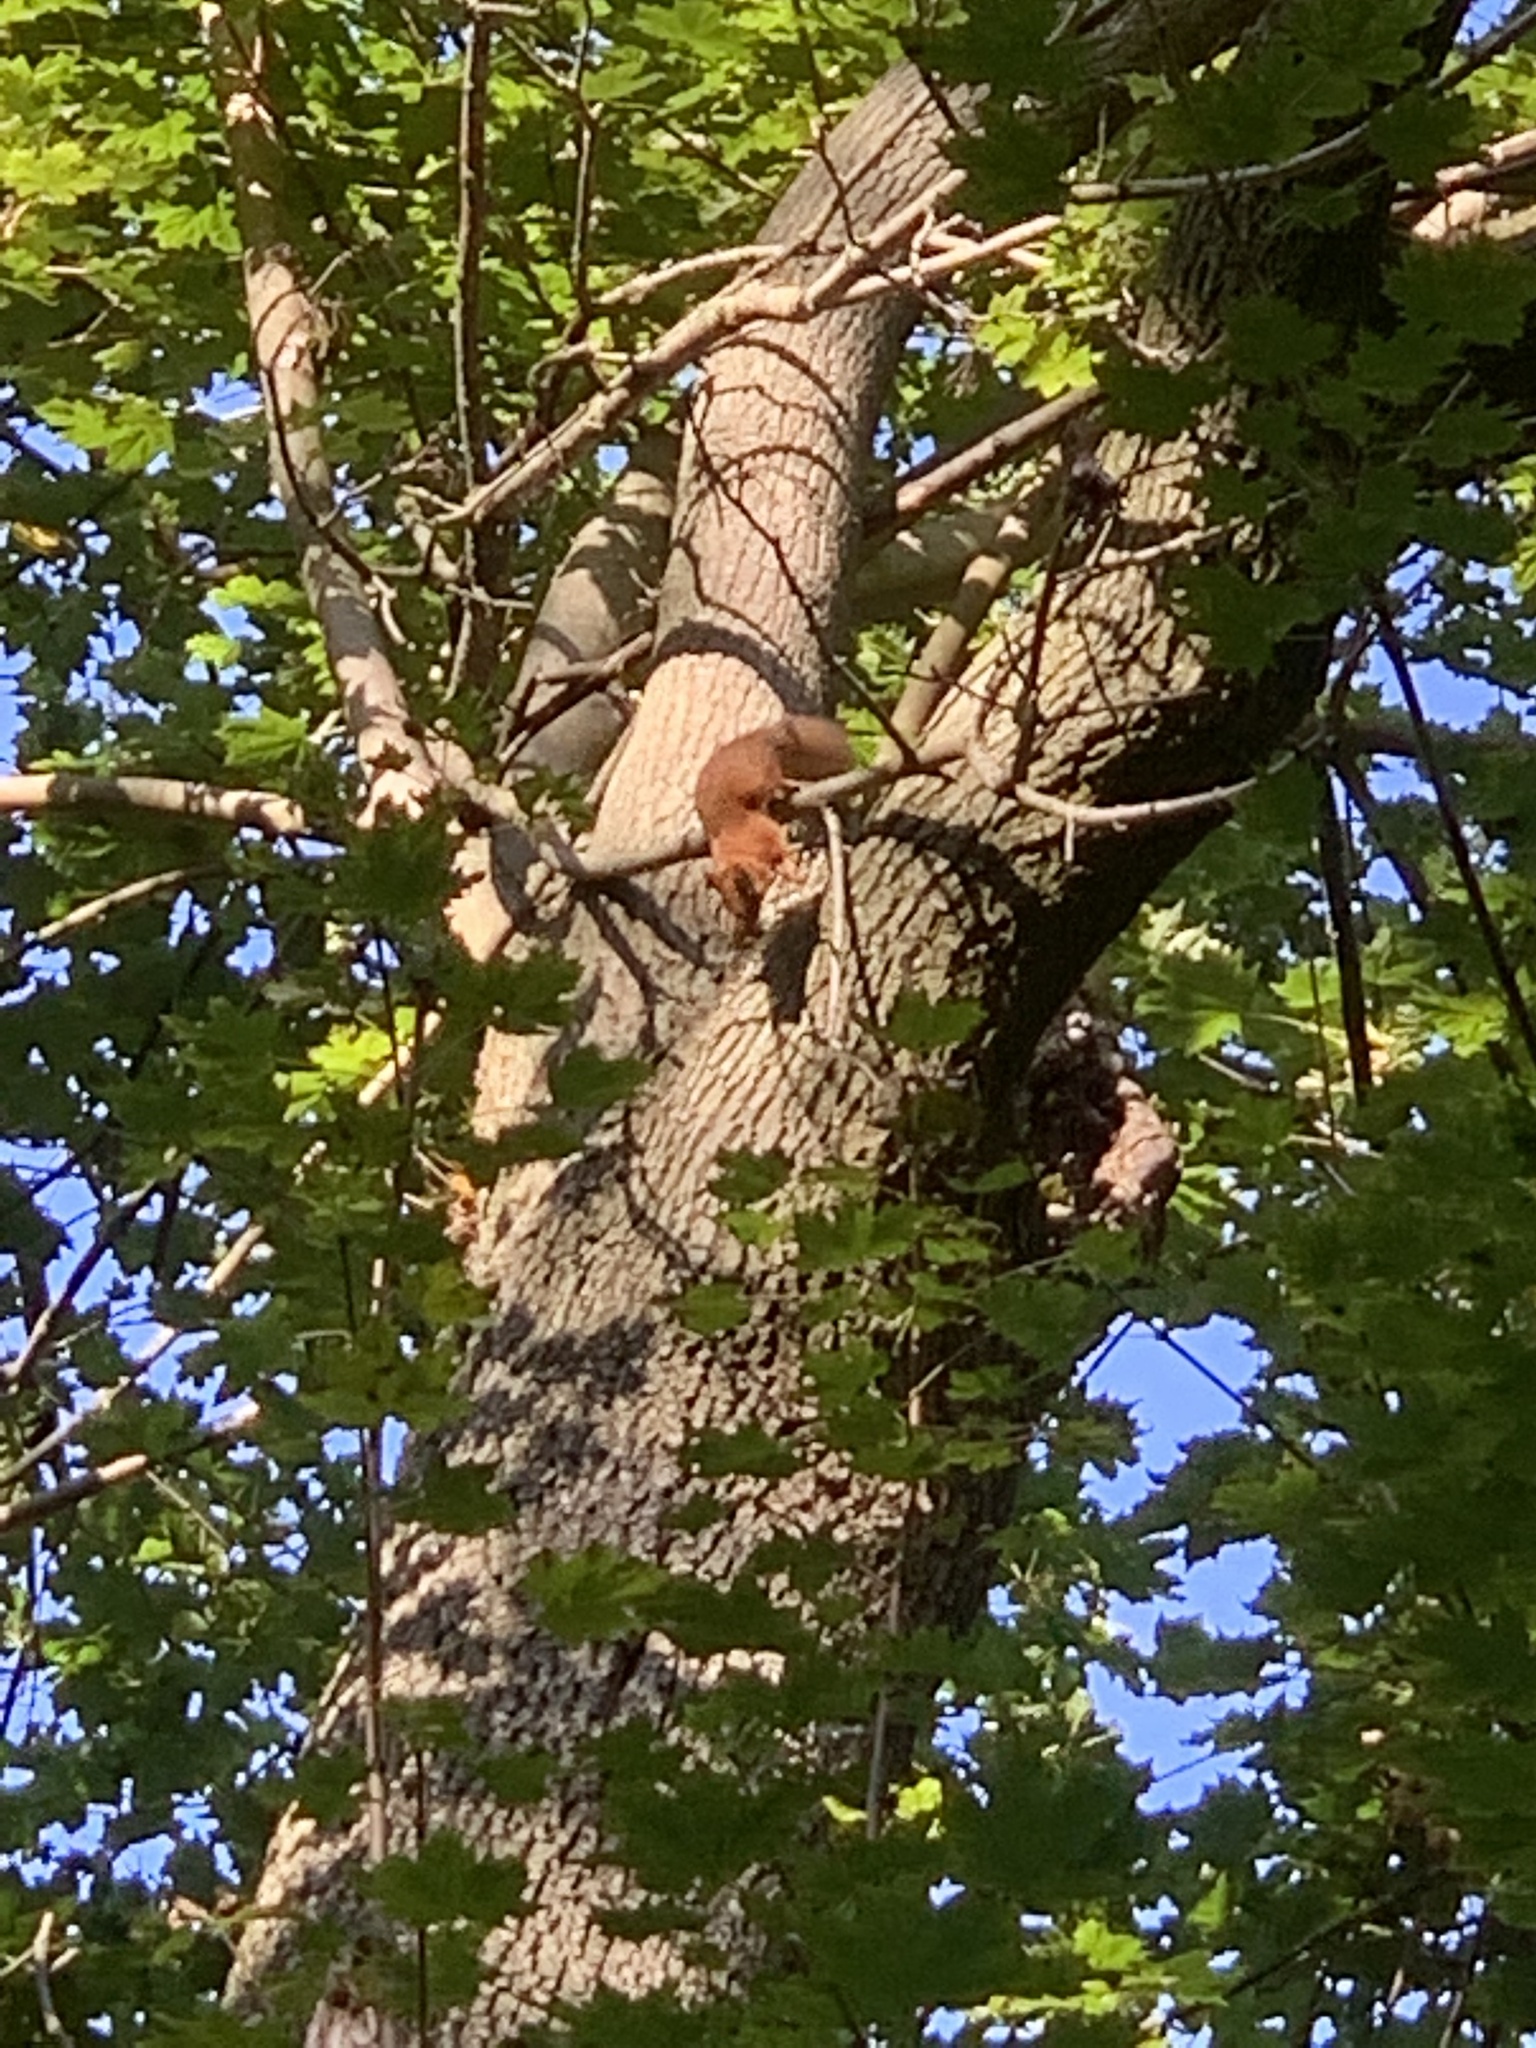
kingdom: Animalia
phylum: Chordata
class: Mammalia
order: Rodentia
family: Sciuridae
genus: Sciurus
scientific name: Sciurus vulgaris
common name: Eurasian red squirrel
